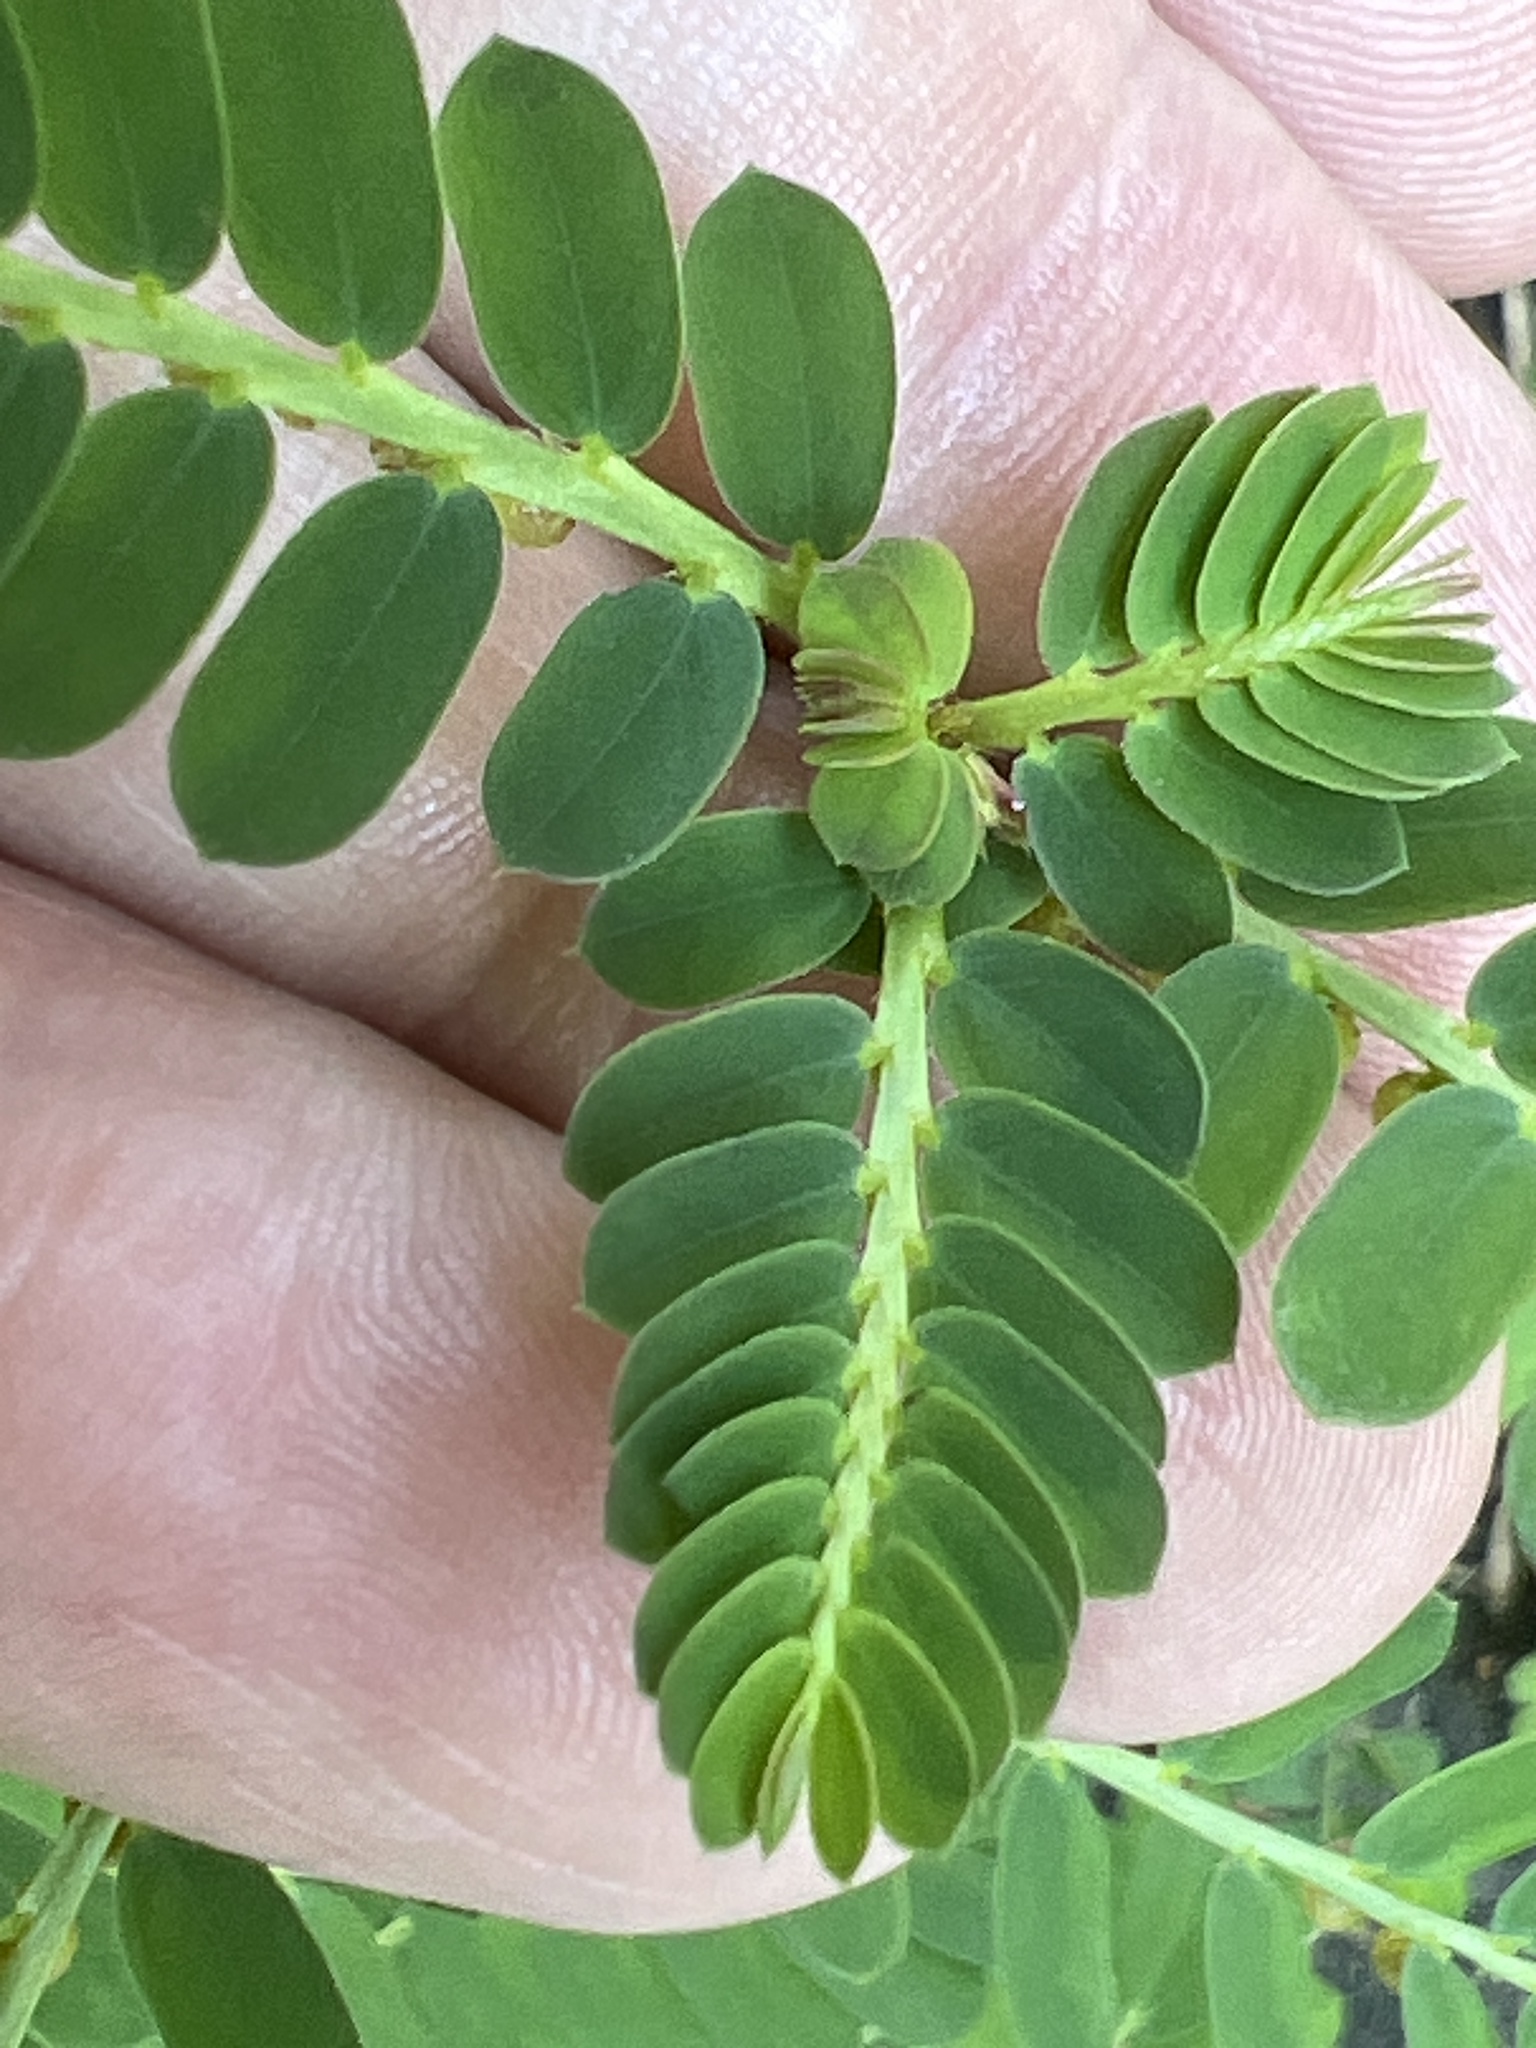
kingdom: Plantae
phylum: Tracheophyta
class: Magnoliopsida
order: Malpighiales
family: Phyllanthaceae
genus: Phyllanthus
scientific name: Phyllanthus urinaria
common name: Chamber bitter
